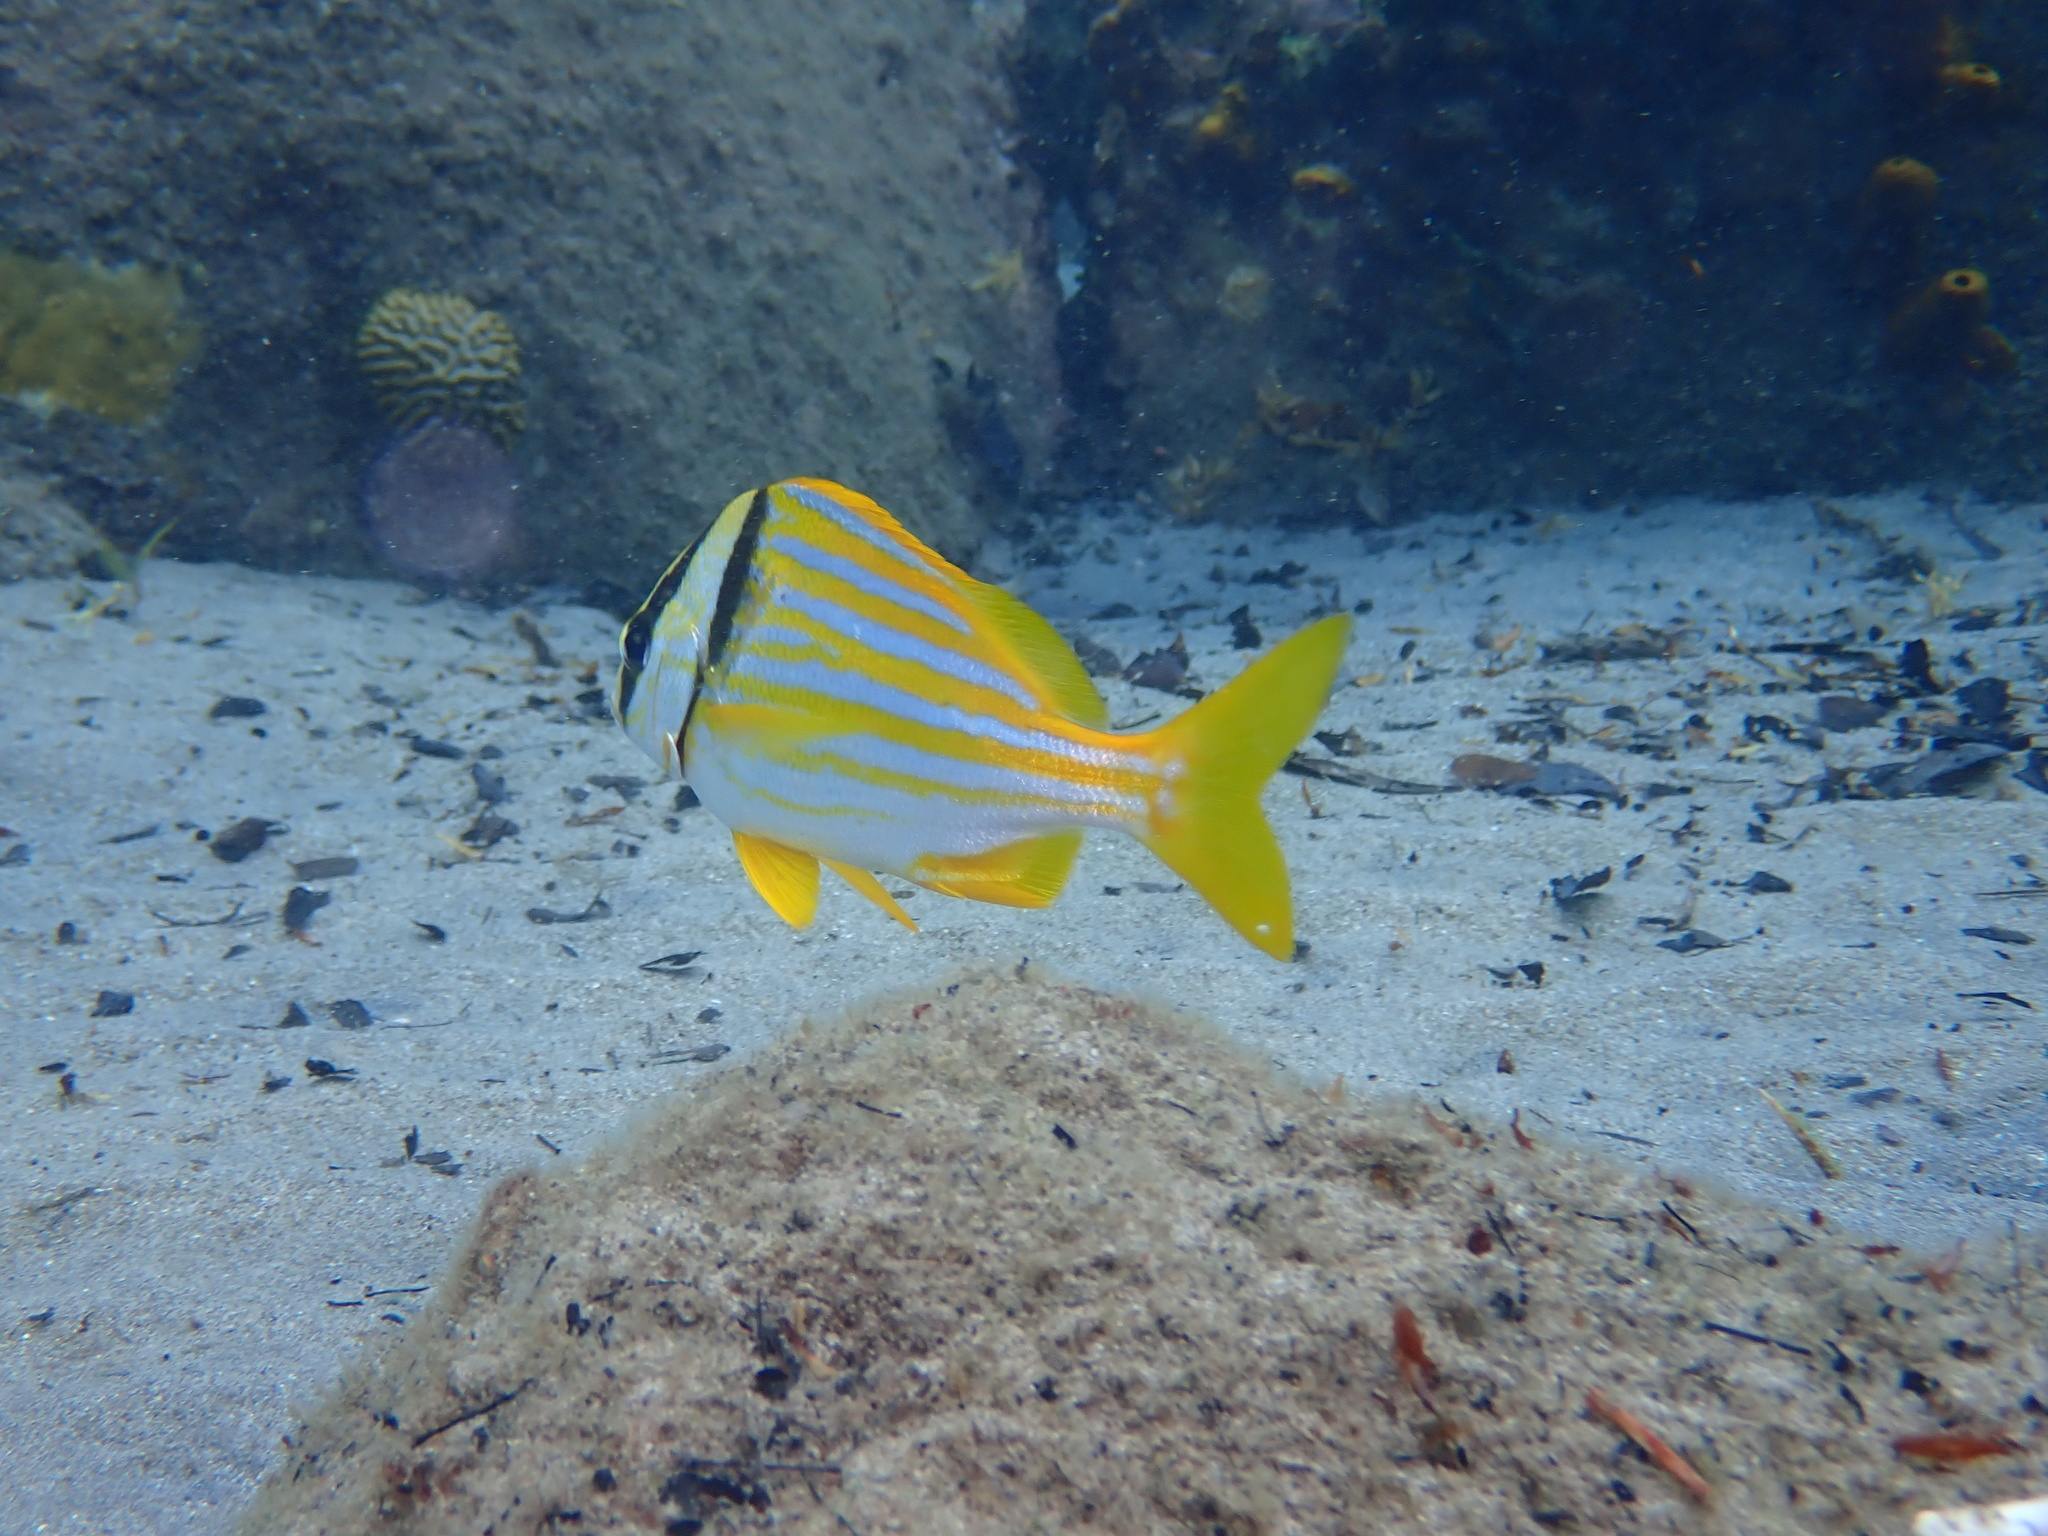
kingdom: Animalia
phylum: Chordata
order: Perciformes
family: Haemulidae
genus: Anisotremus
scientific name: Anisotremus virginicus
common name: Porkfish
